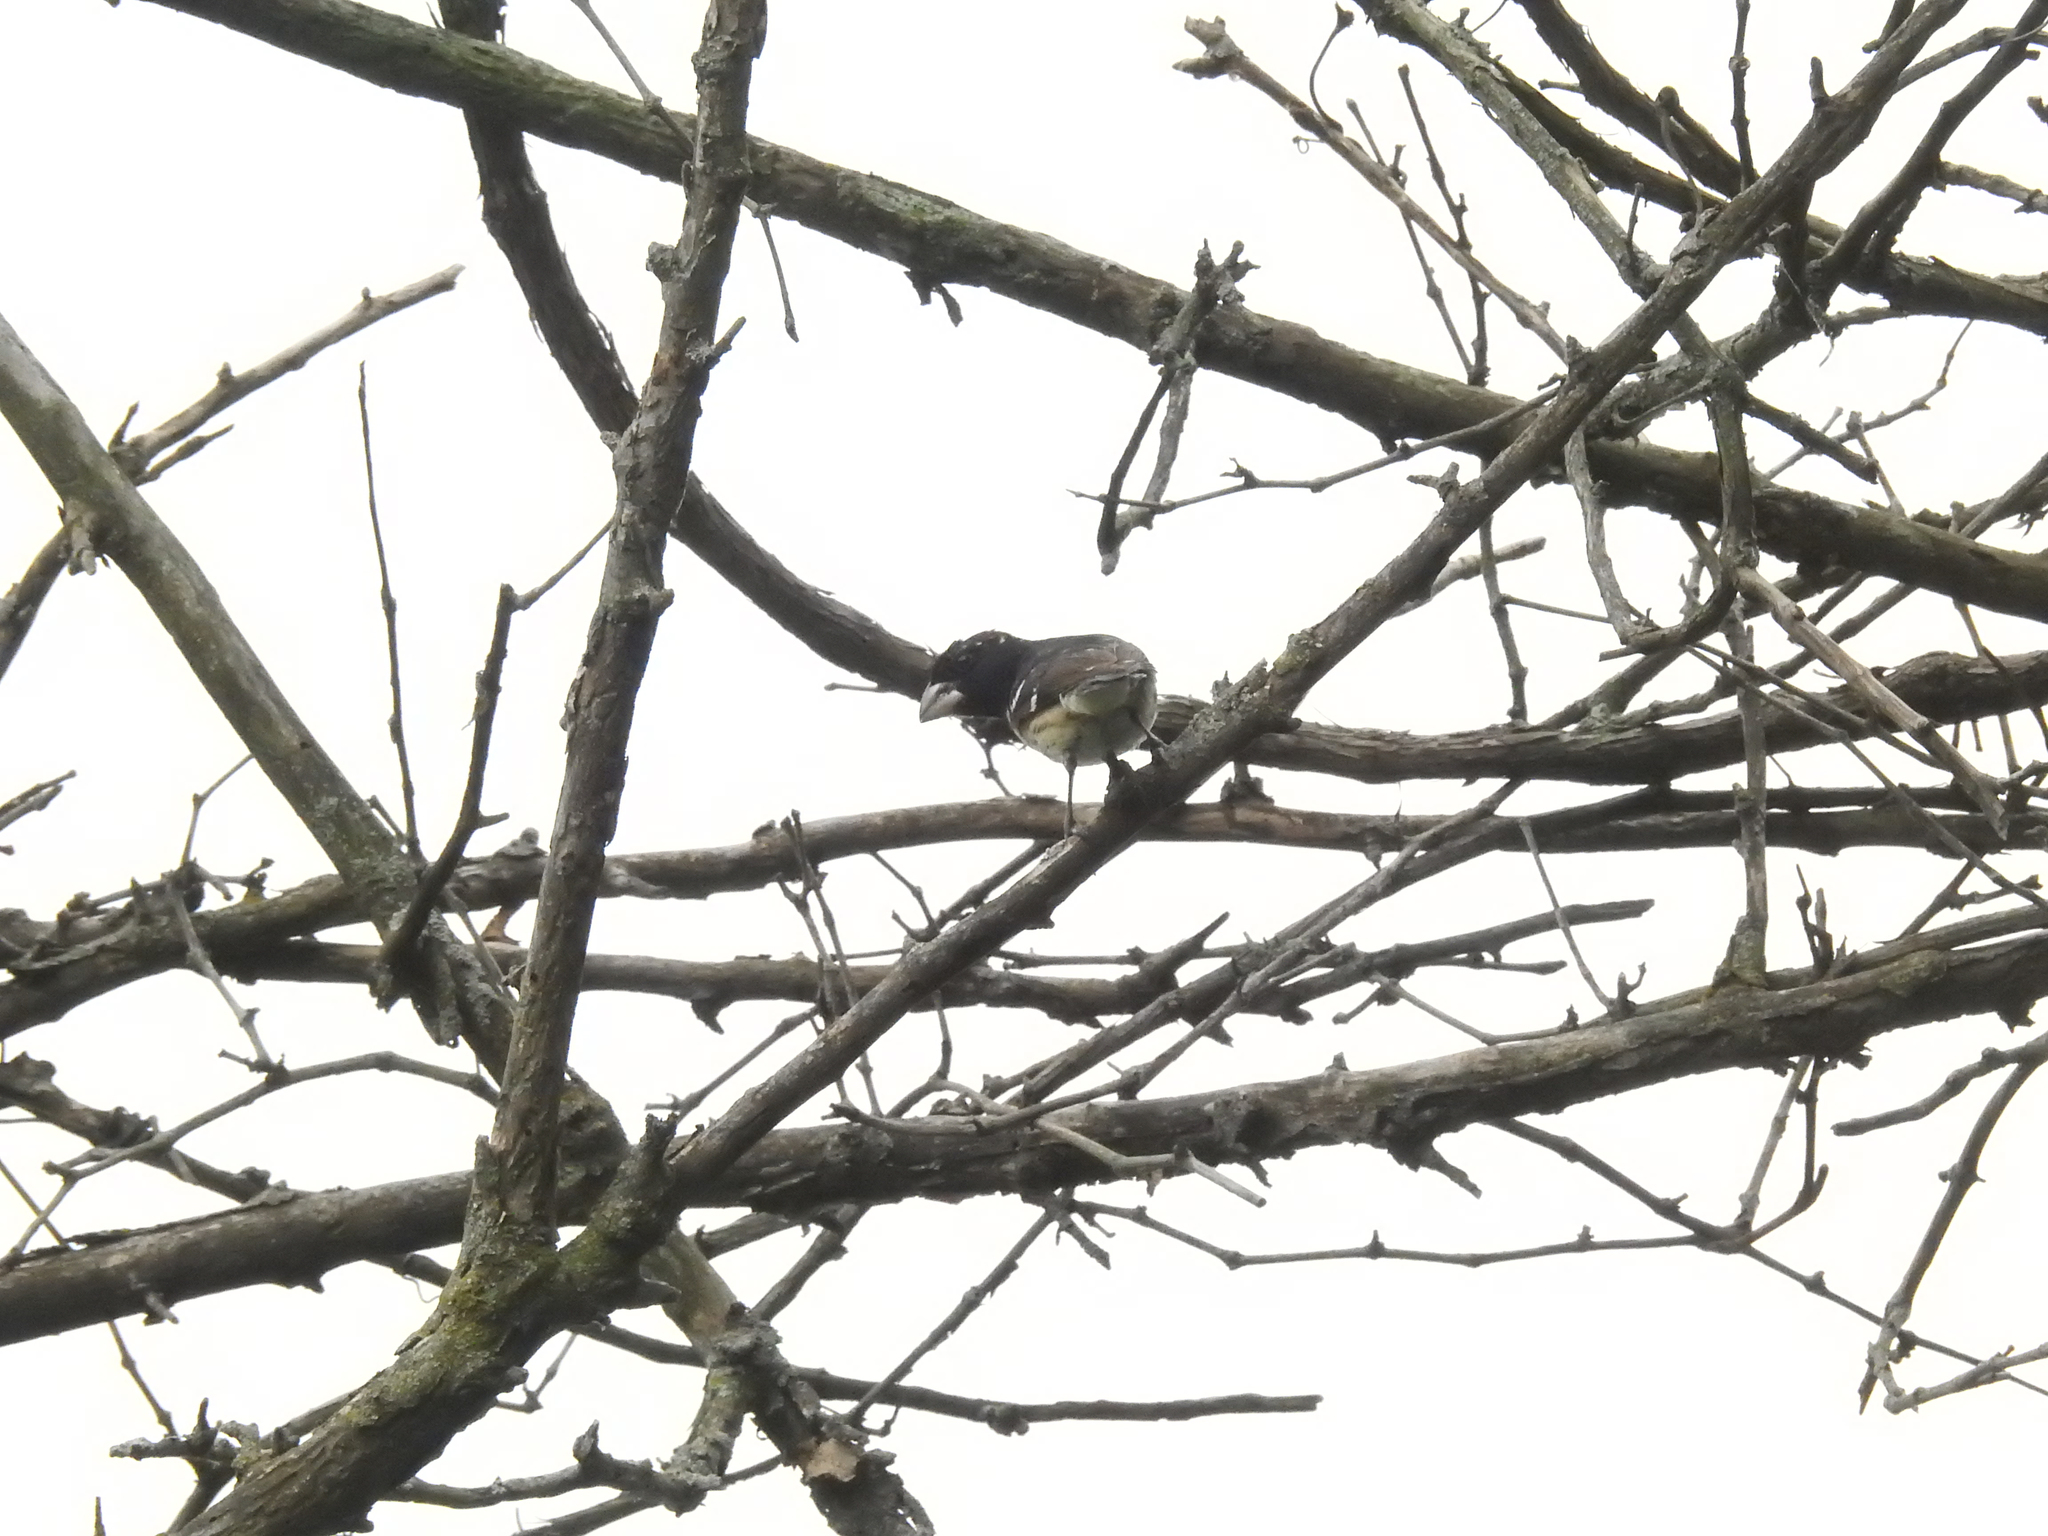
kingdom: Animalia
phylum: Chordata
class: Aves
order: Passeriformes
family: Cardinalidae
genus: Pheucticus
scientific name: Pheucticus ludovicianus
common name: Rose-breasted grosbeak
